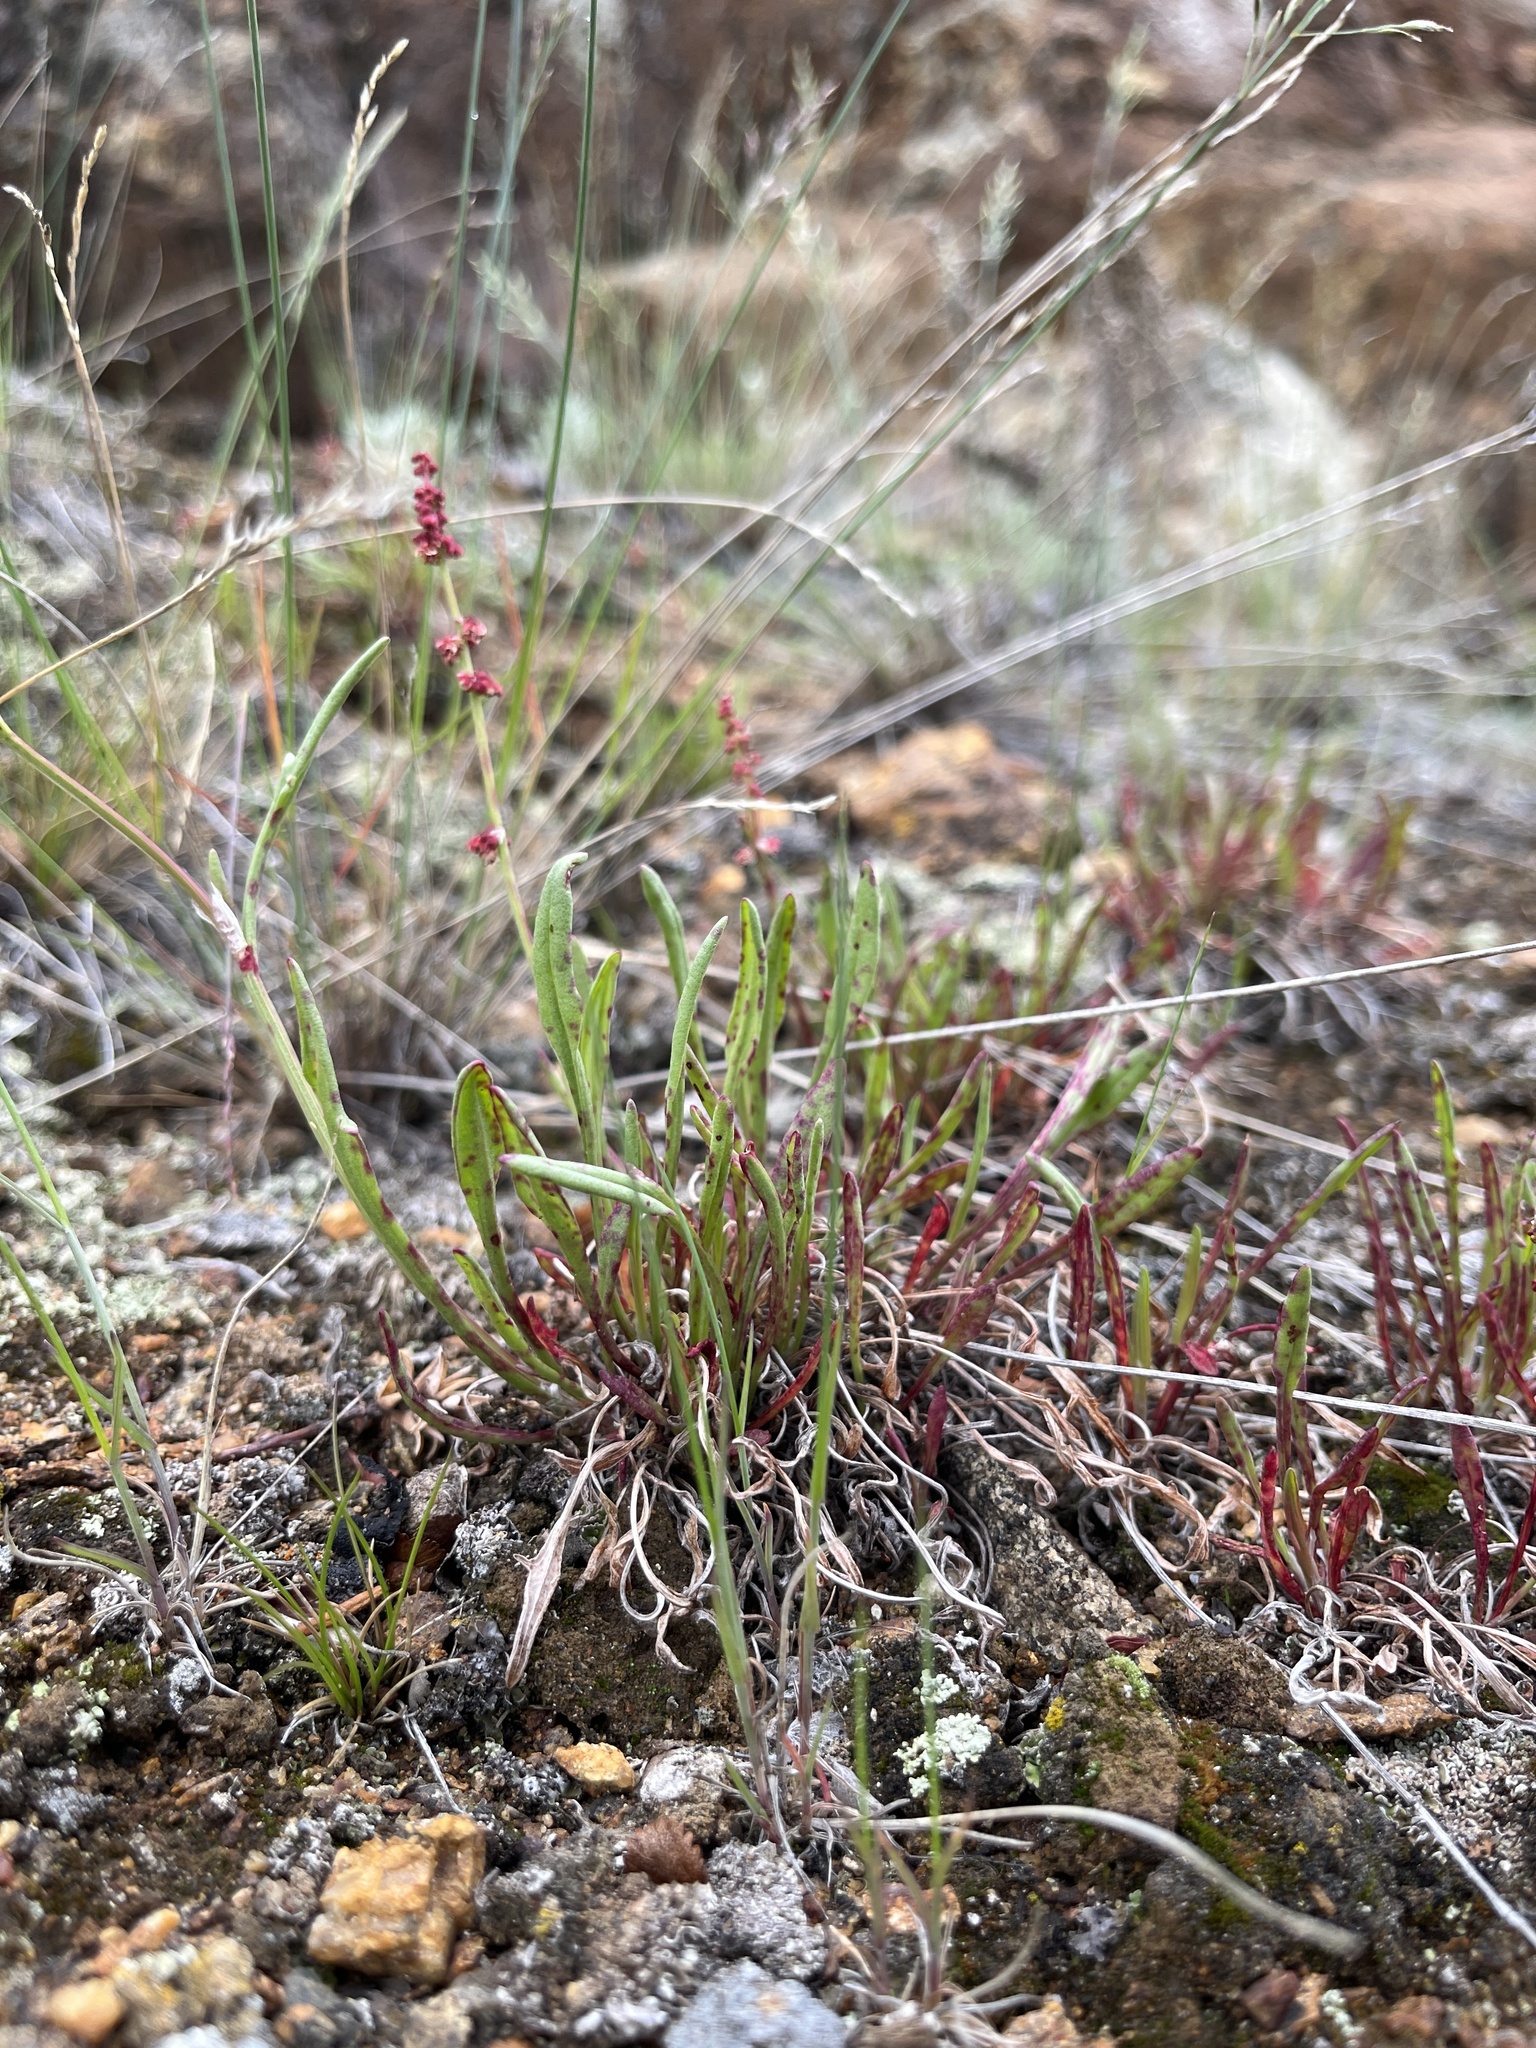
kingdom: Plantae
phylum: Tracheophyta
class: Magnoliopsida
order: Caryophyllales
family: Polygonaceae
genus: Rumex
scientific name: Rumex acetosella
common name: Common sheep sorrel
